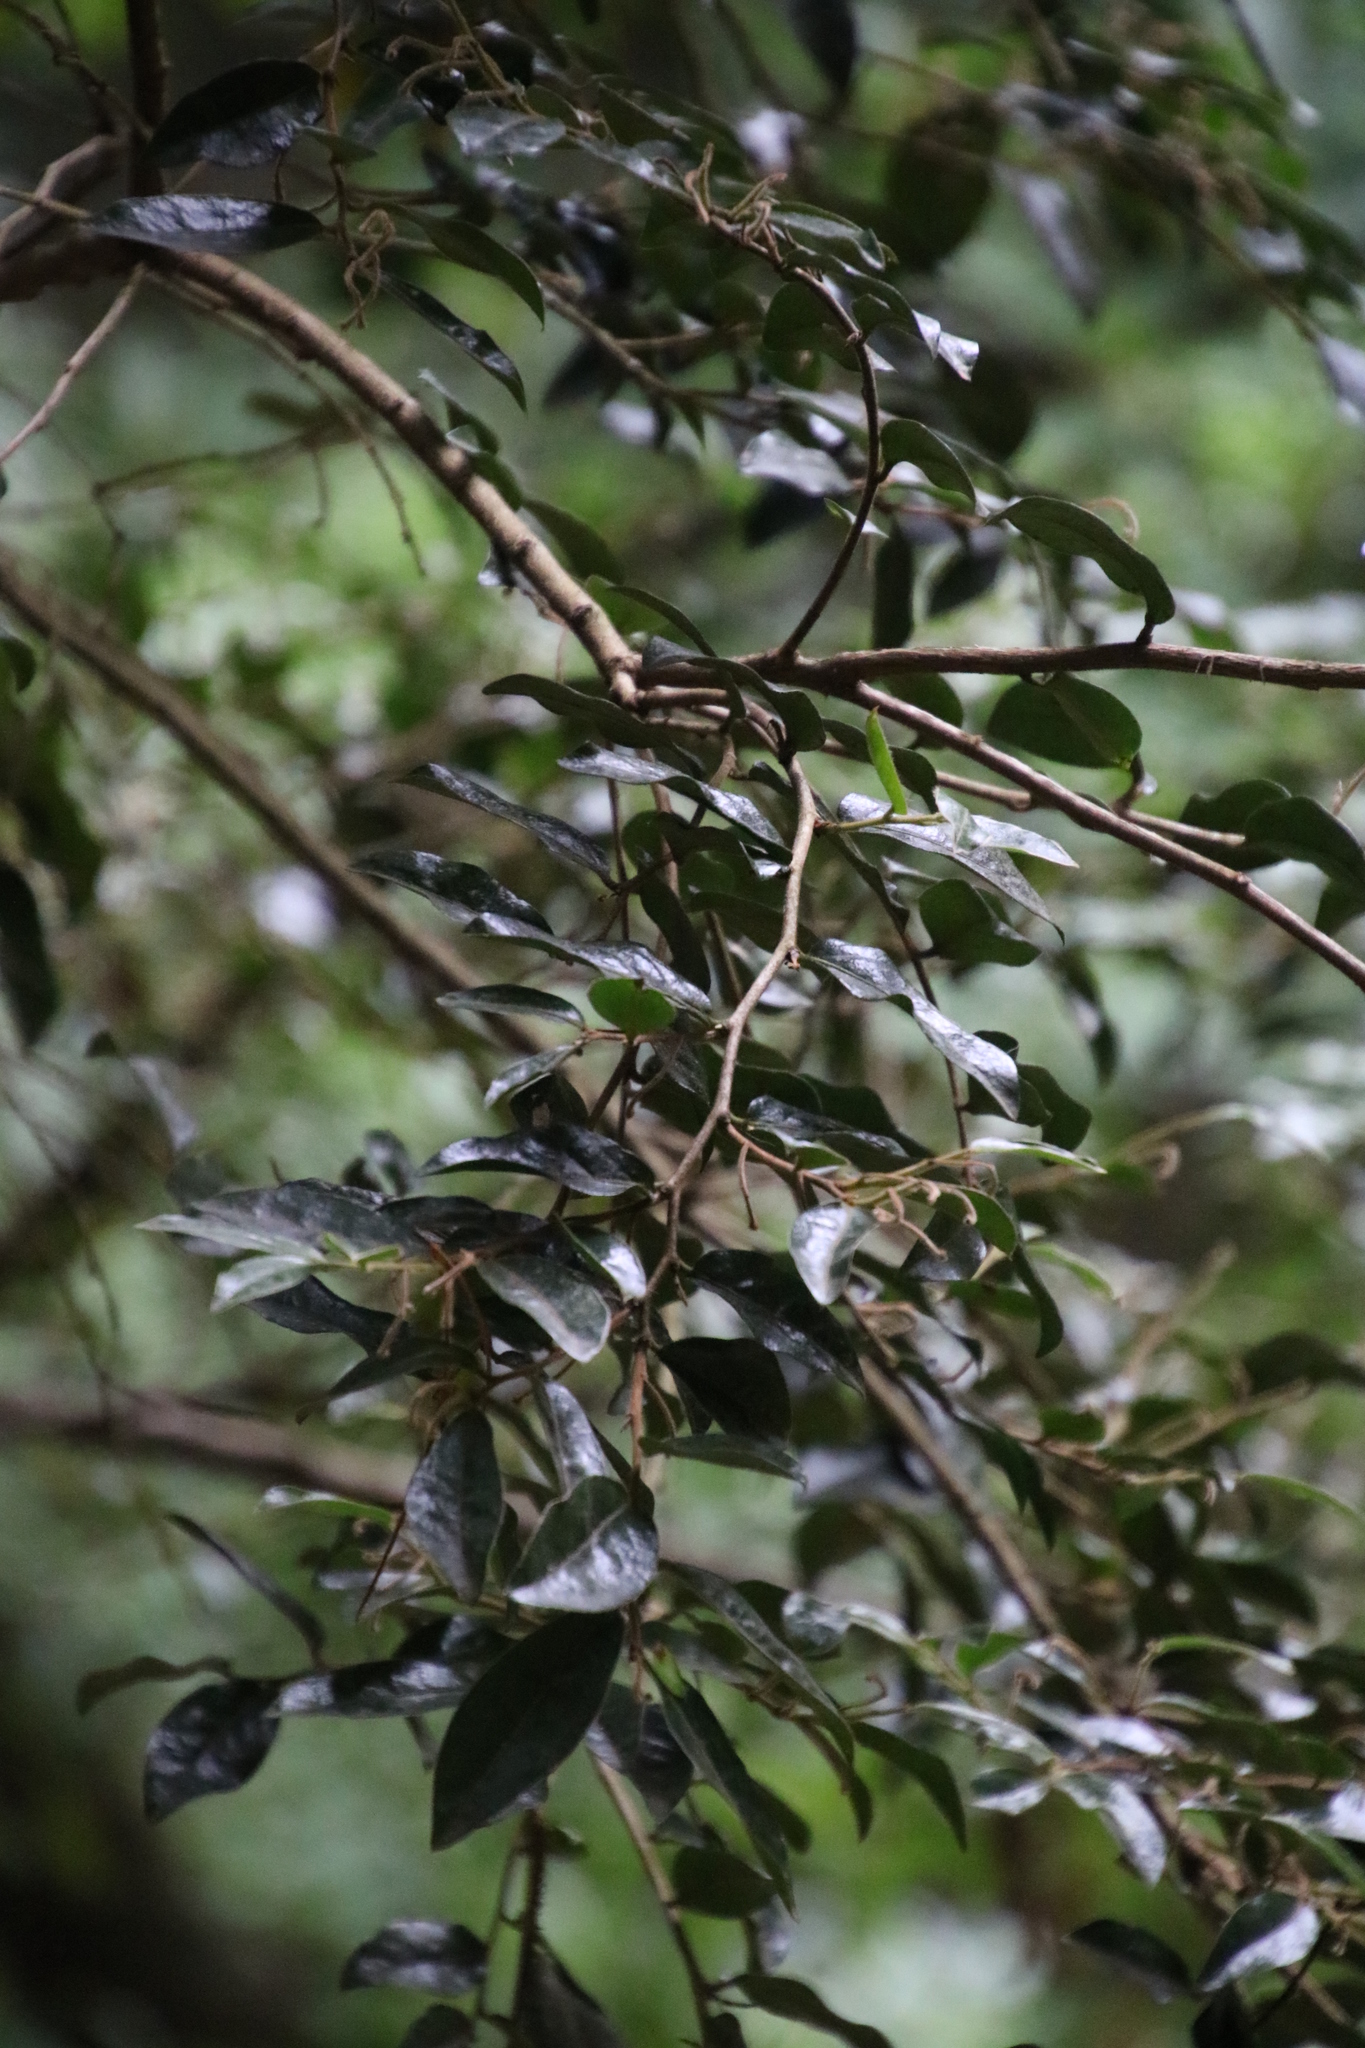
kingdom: Plantae
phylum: Tracheophyta
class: Magnoliopsida
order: Ericales
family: Ebenaceae
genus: Diospyros
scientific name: Diospyros whyteana
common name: Bladder-nut
